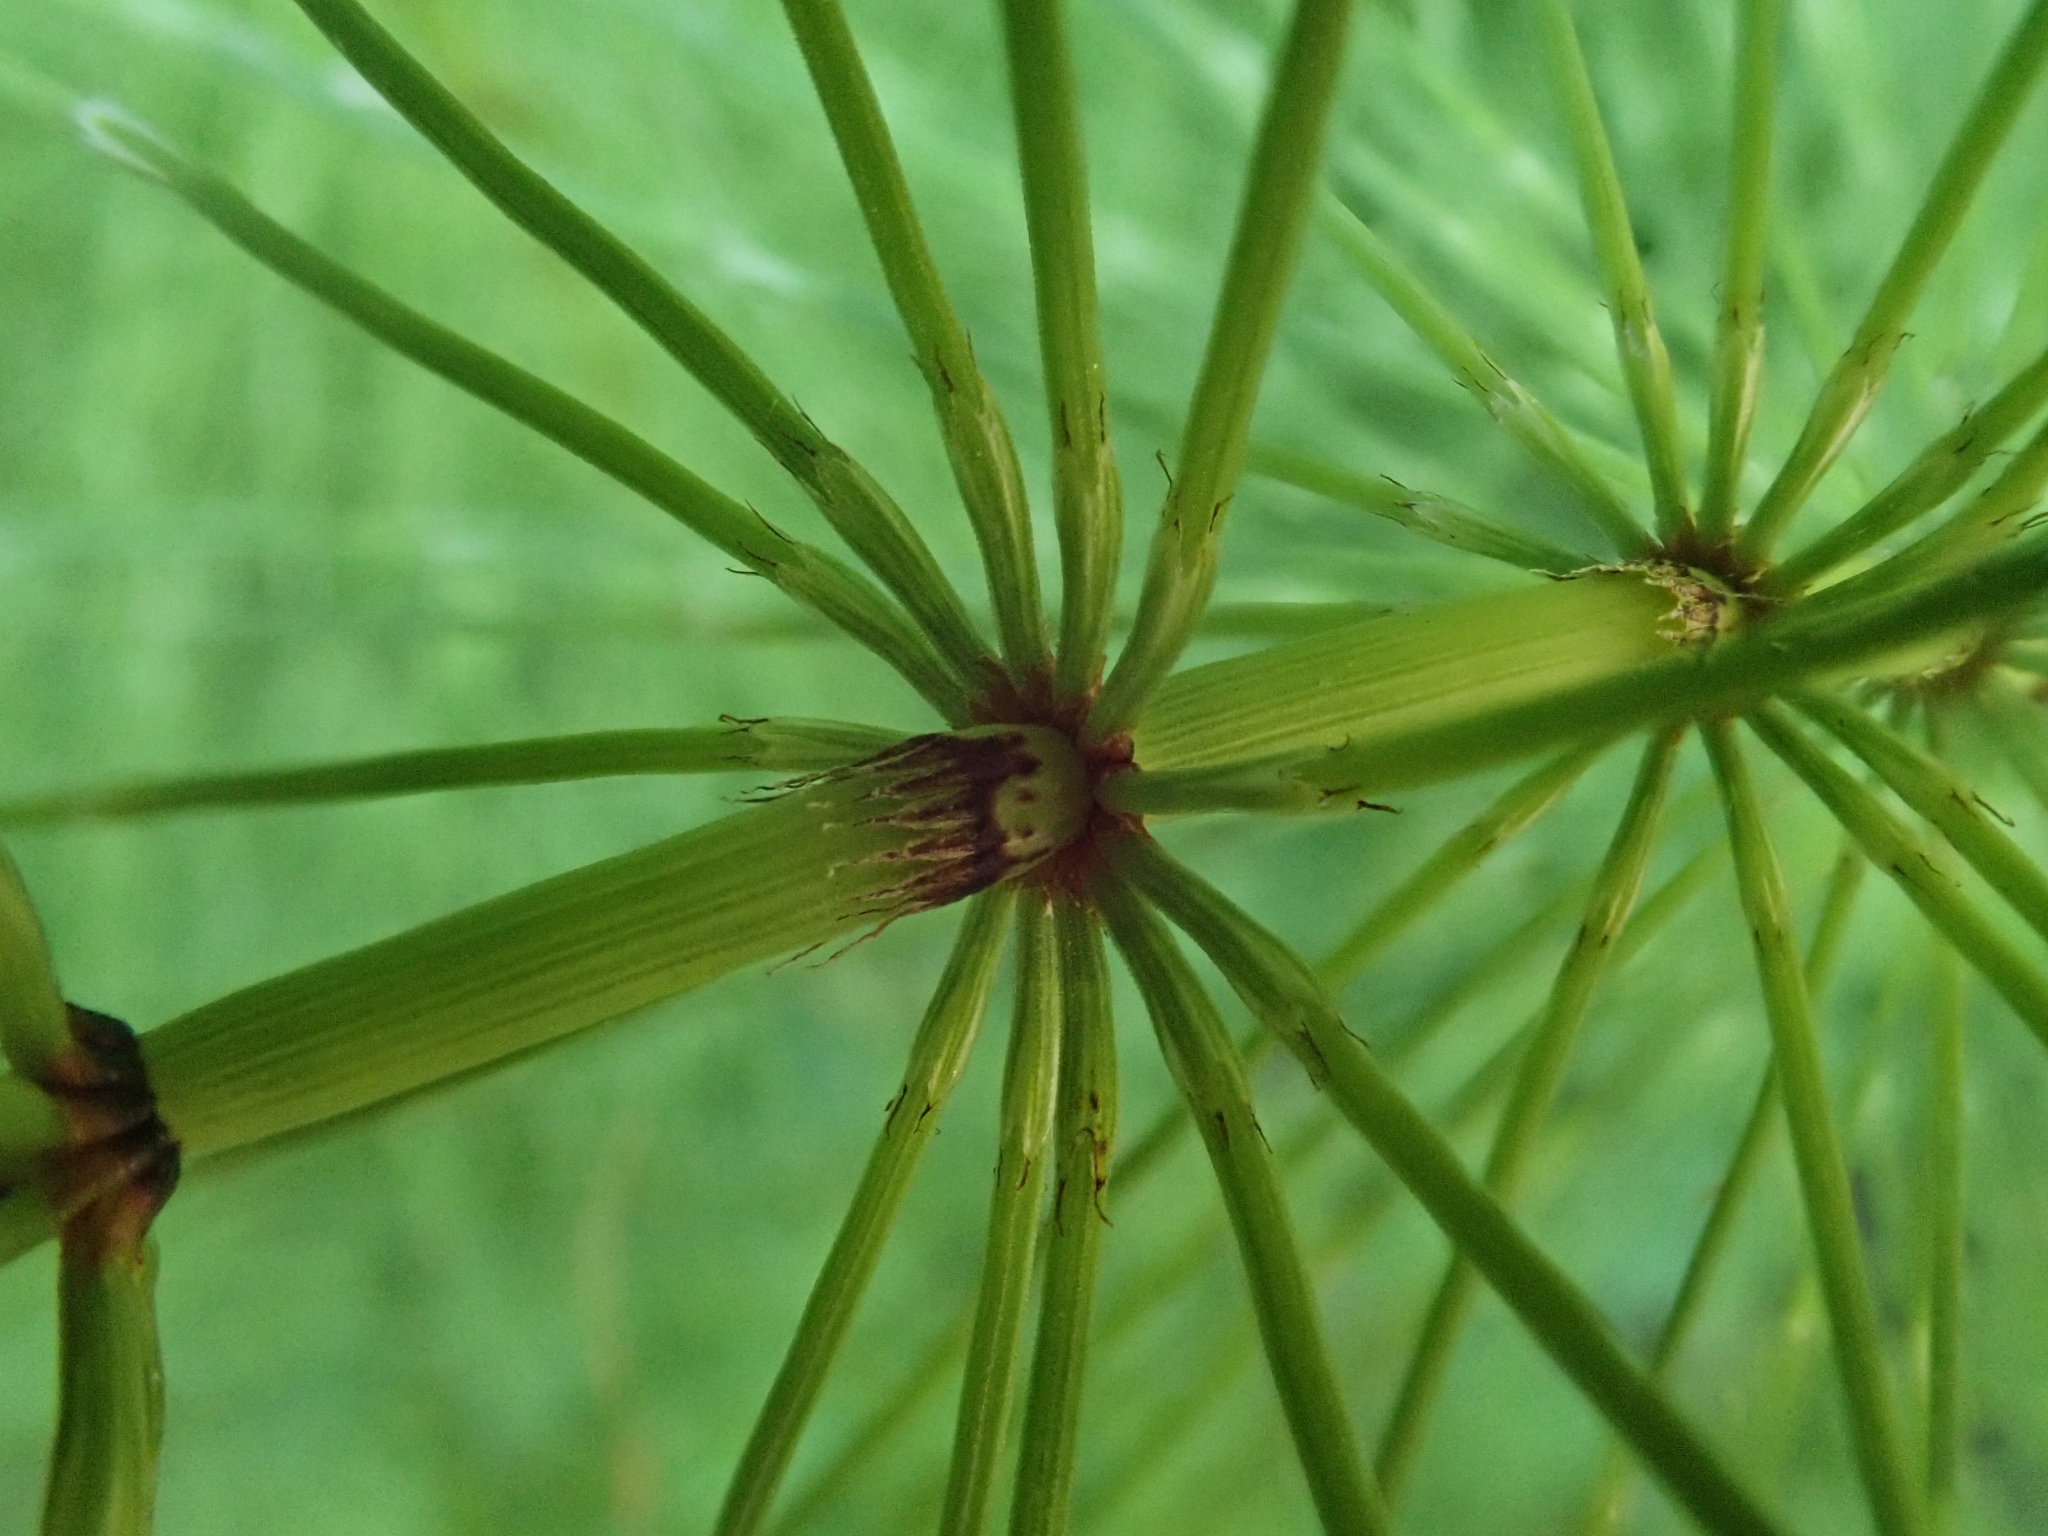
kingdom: Plantae
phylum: Tracheophyta
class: Polypodiopsida
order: Equisetales
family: Equisetaceae
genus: Equisetum
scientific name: Equisetum telmateia
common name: Great horsetail
